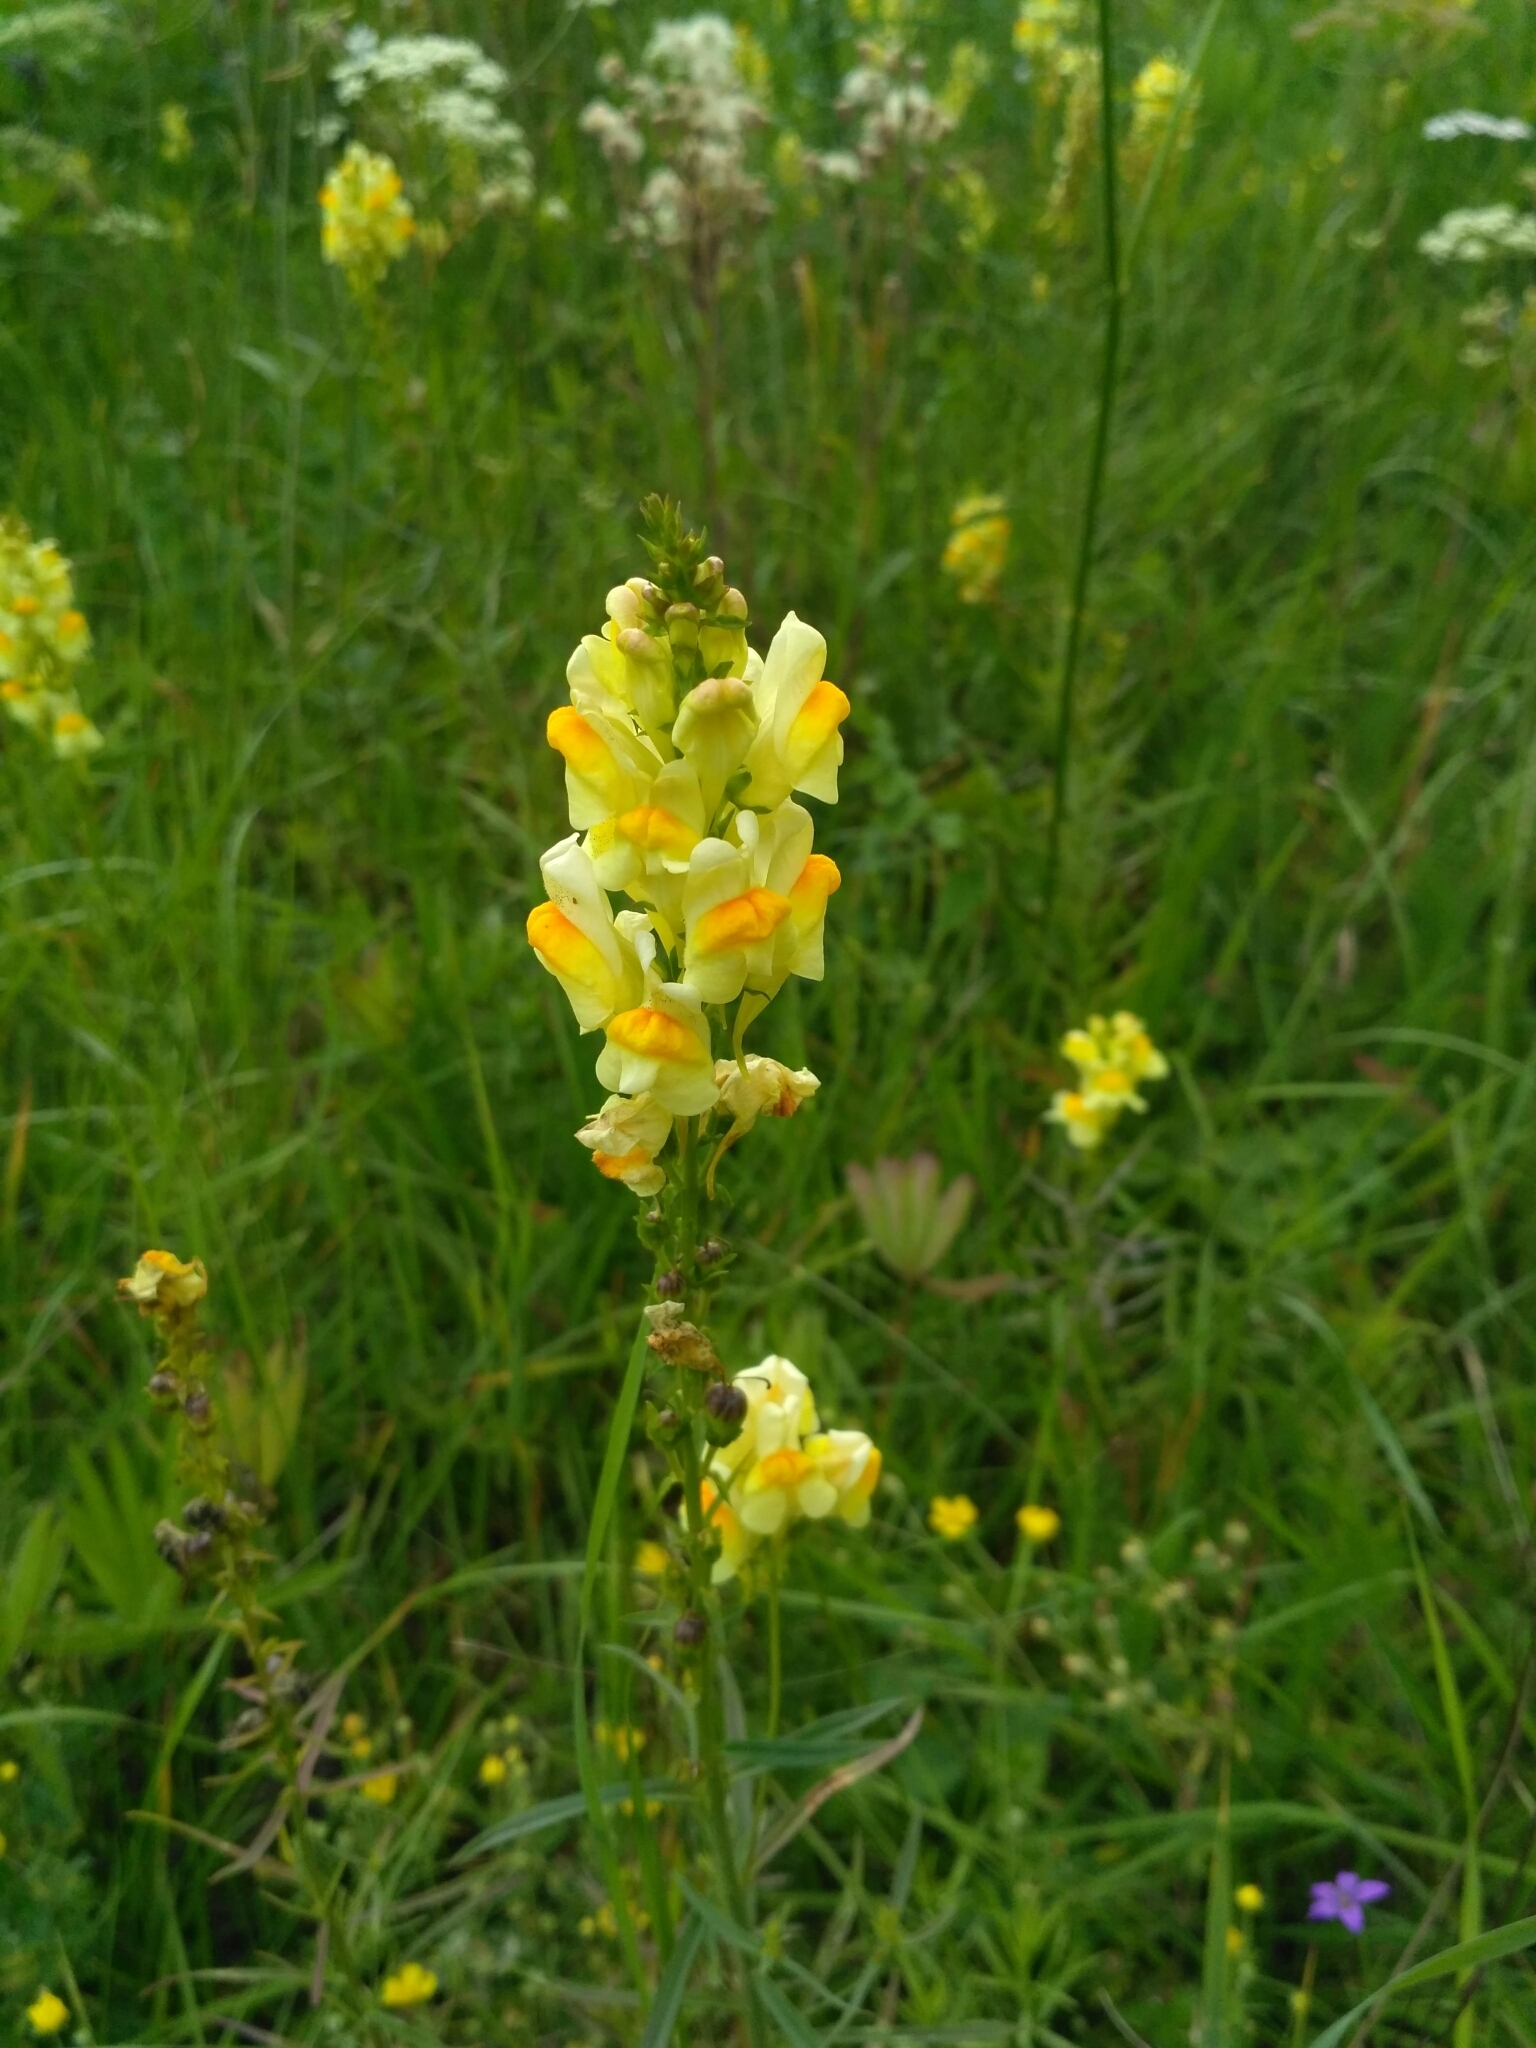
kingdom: Plantae
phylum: Tracheophyta
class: Magnoliopsida
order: Lamiales
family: Plantaginaceae
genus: Linaria
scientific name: Linaria vulgaris
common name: Butter and eggs
